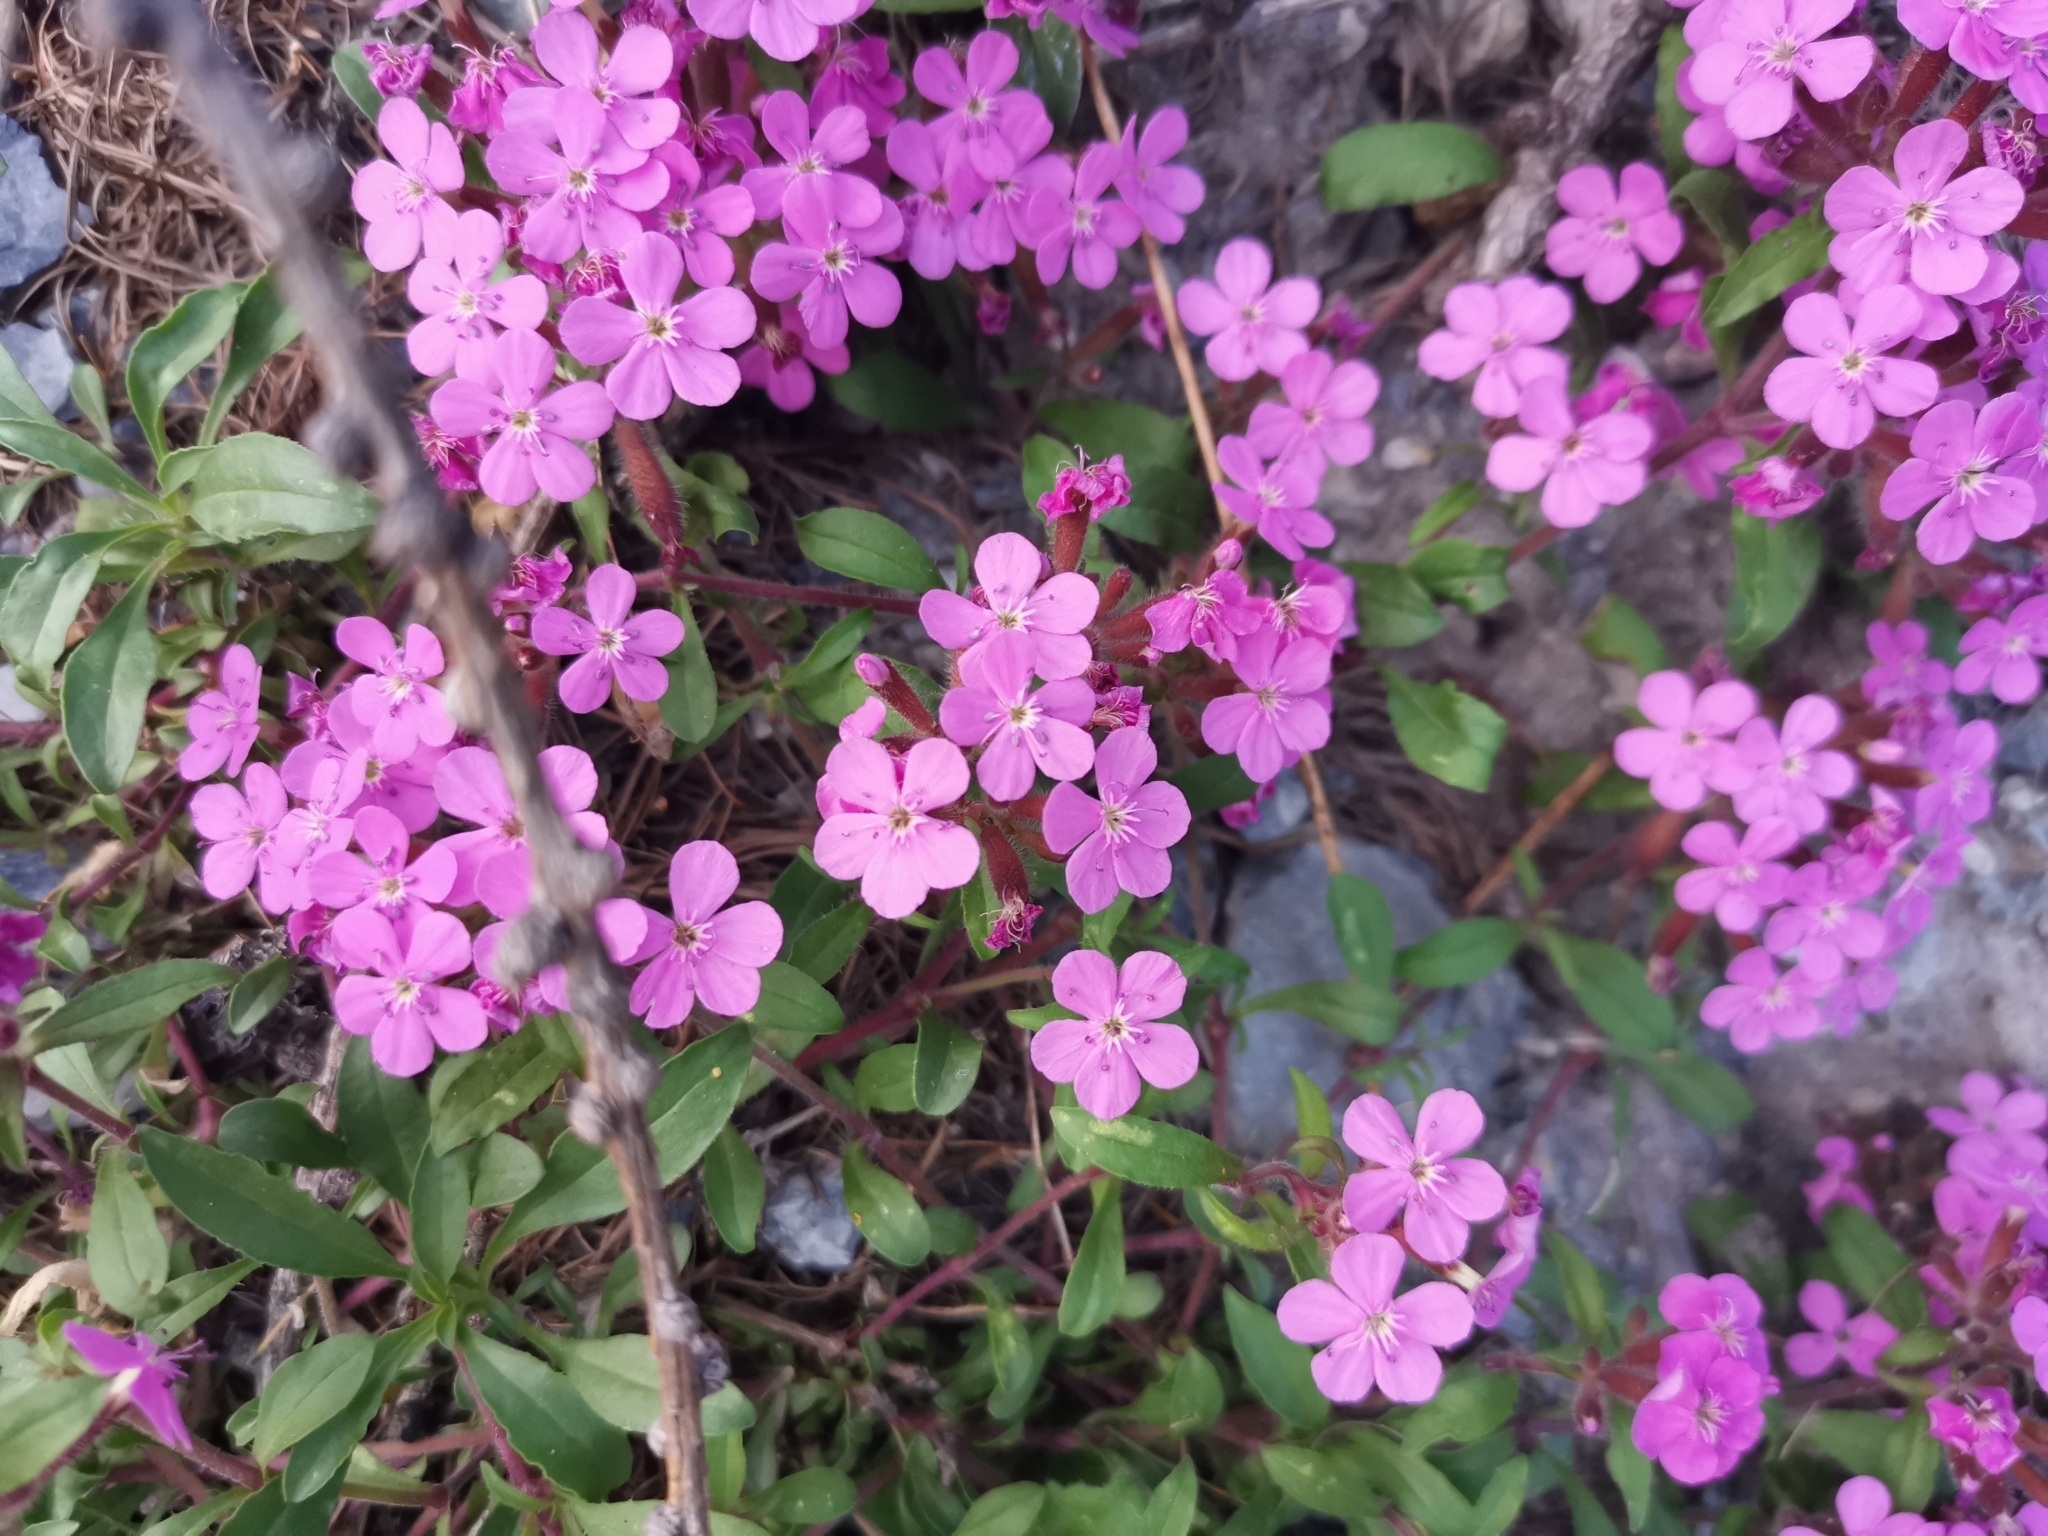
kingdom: Plantae
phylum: Tracheophyta
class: Magnoliopsida
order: Caryophyllales
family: Caryophyllaceae
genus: Saponaria
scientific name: Saponaria ocymoides
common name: Rock soapwort
